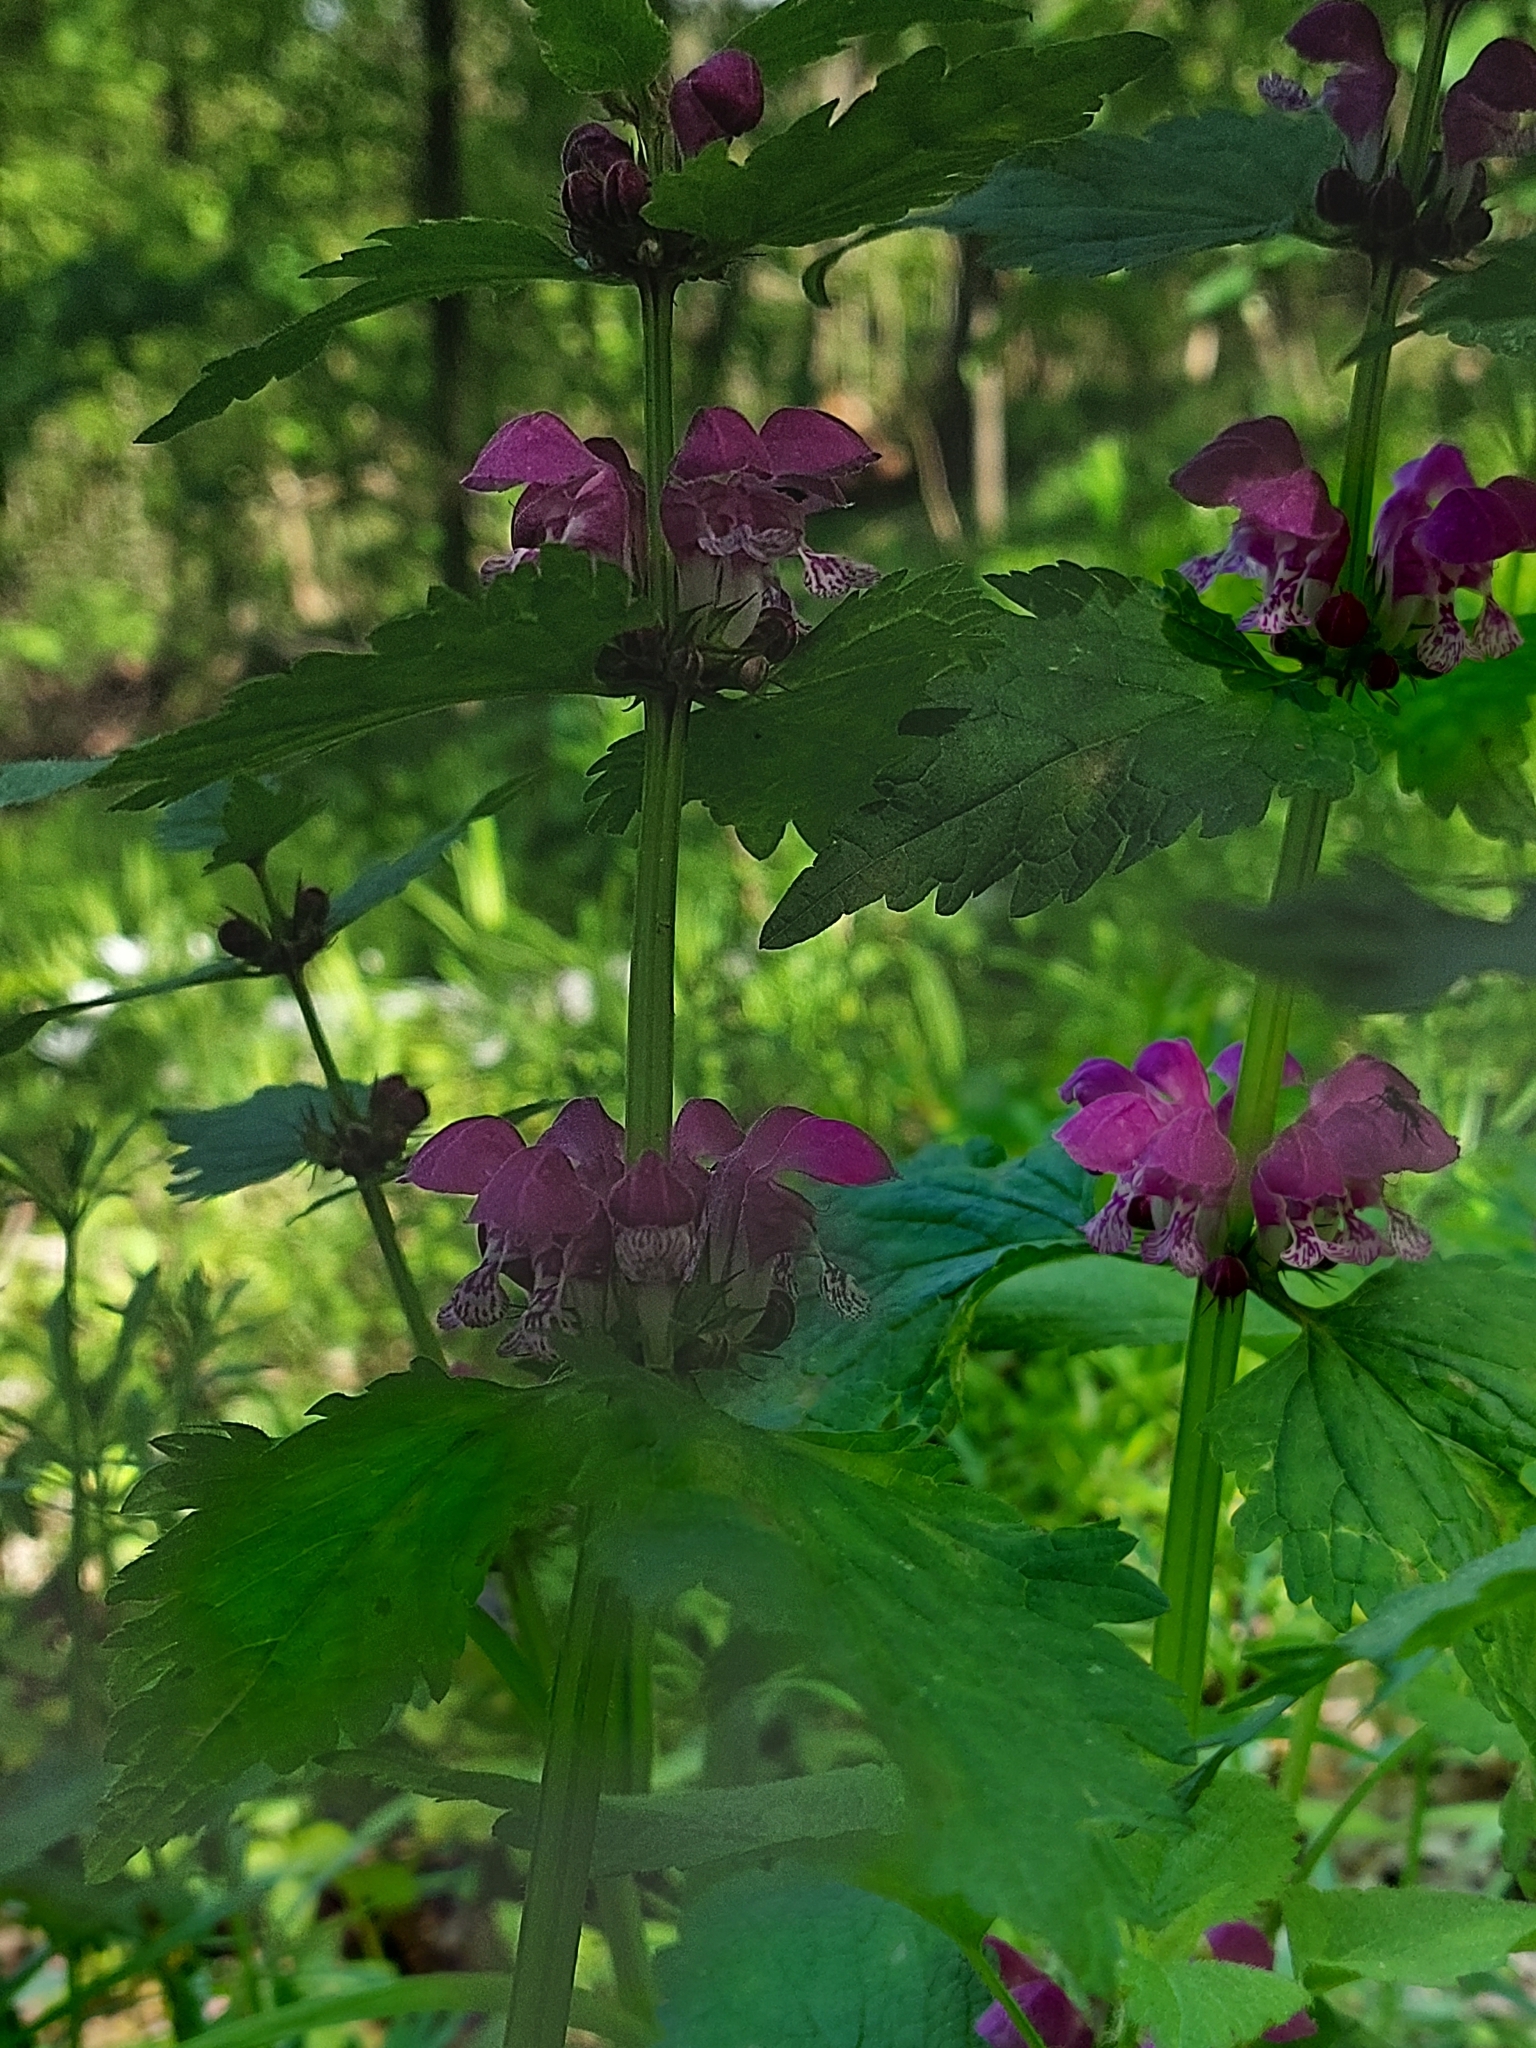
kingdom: Plantae
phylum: Tracheophyta
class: Magnoliopsida
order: Lamiales
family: Lamiaceae
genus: Lamium
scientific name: Lamium maculatum
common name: Spotted dead-nettle
